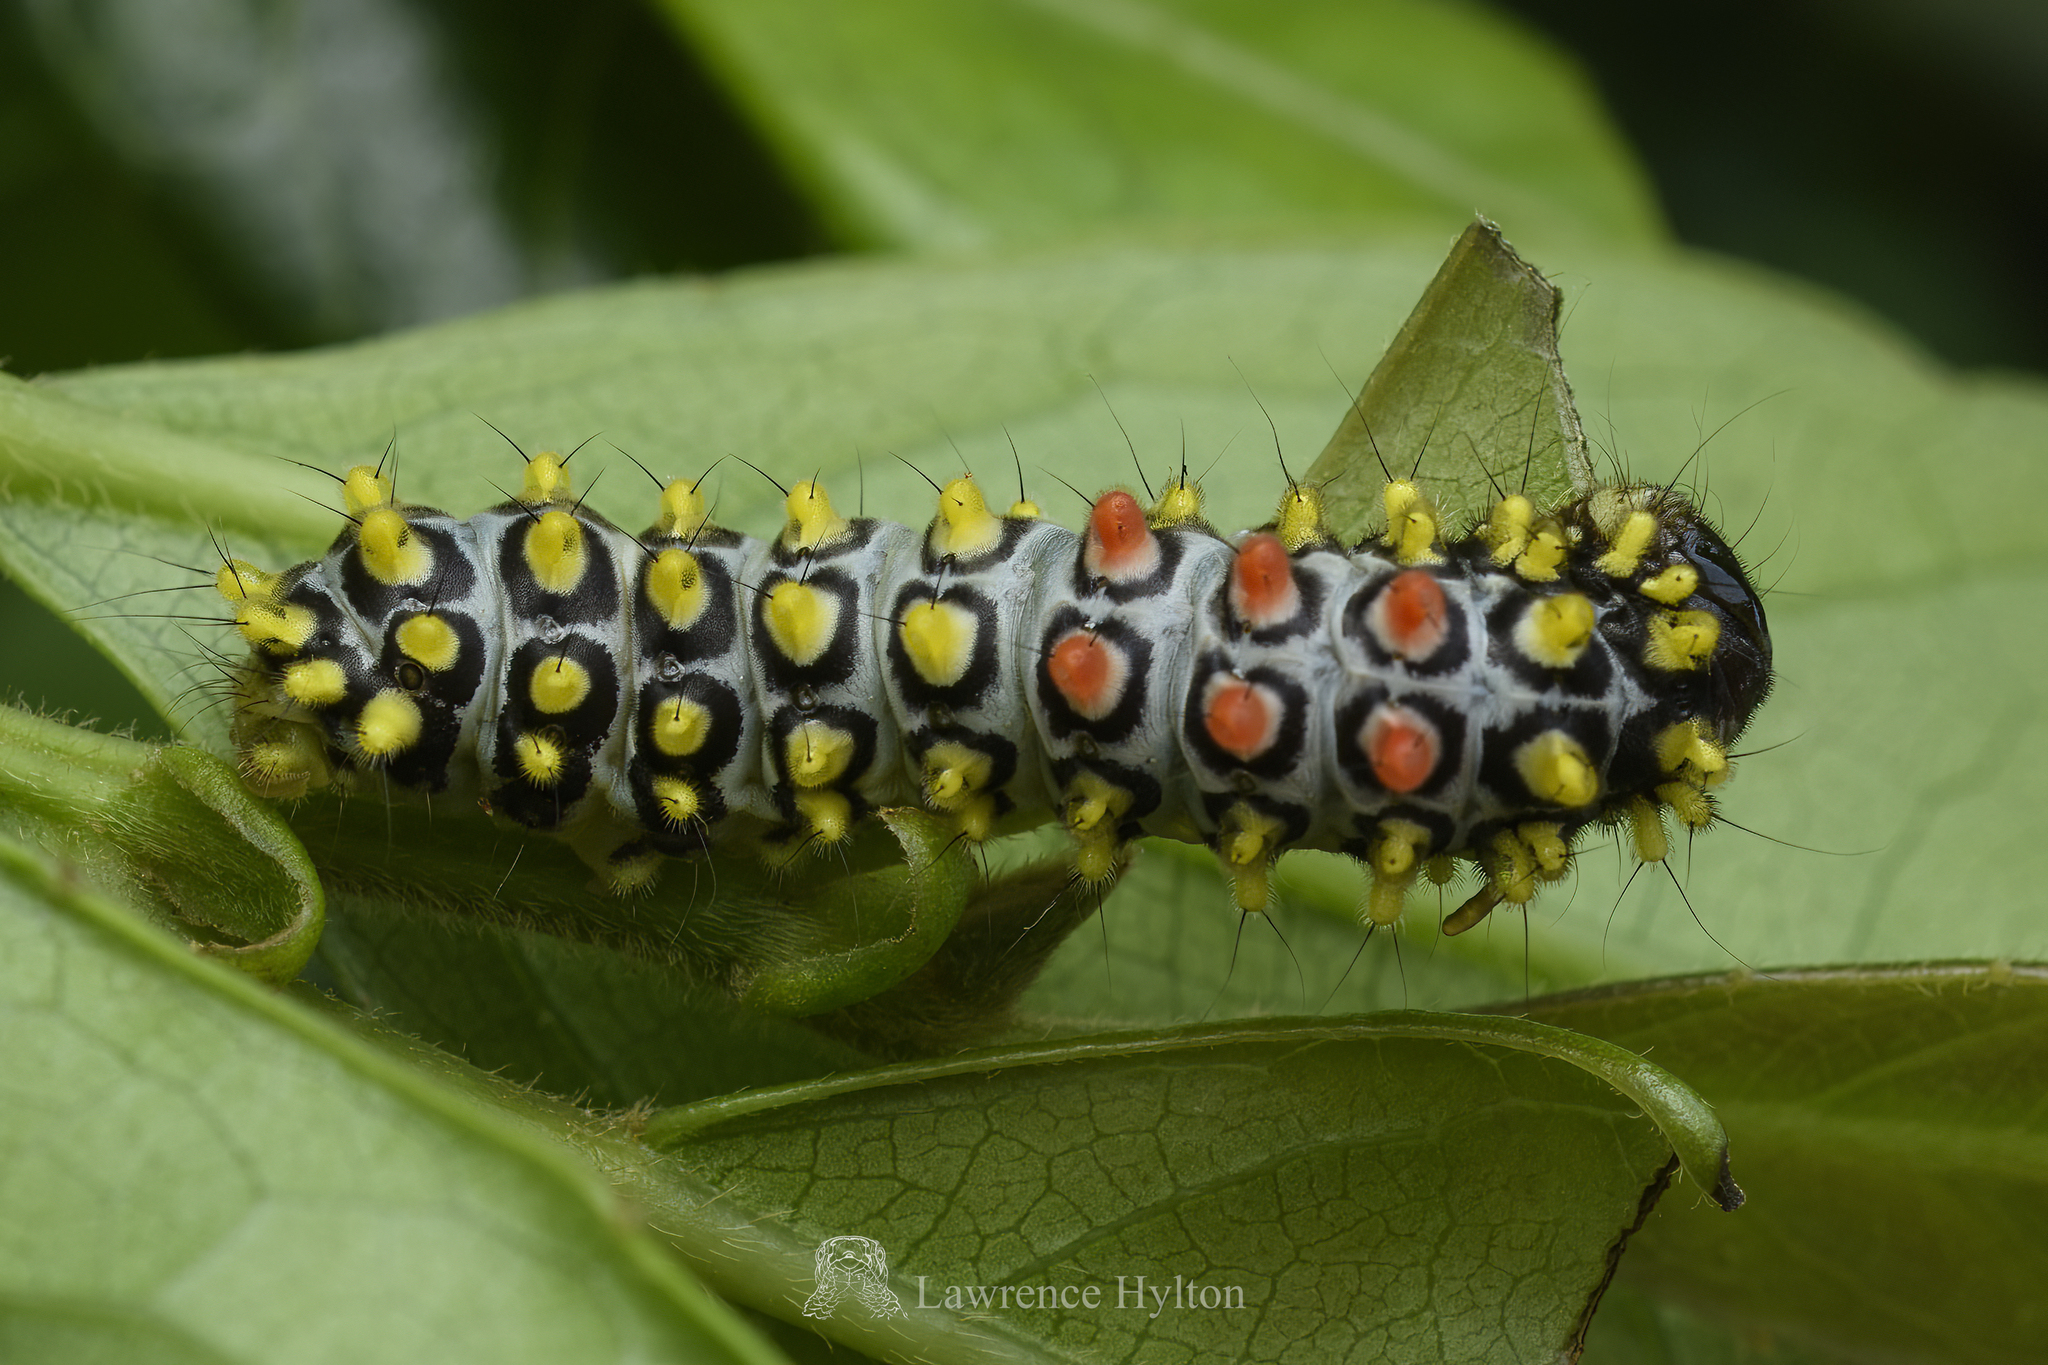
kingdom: Animalia
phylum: Arthropoda
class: Insecta
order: Lepidoptera
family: Zygaenidae
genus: Cyclosia
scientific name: Cyclosia papilionaris
